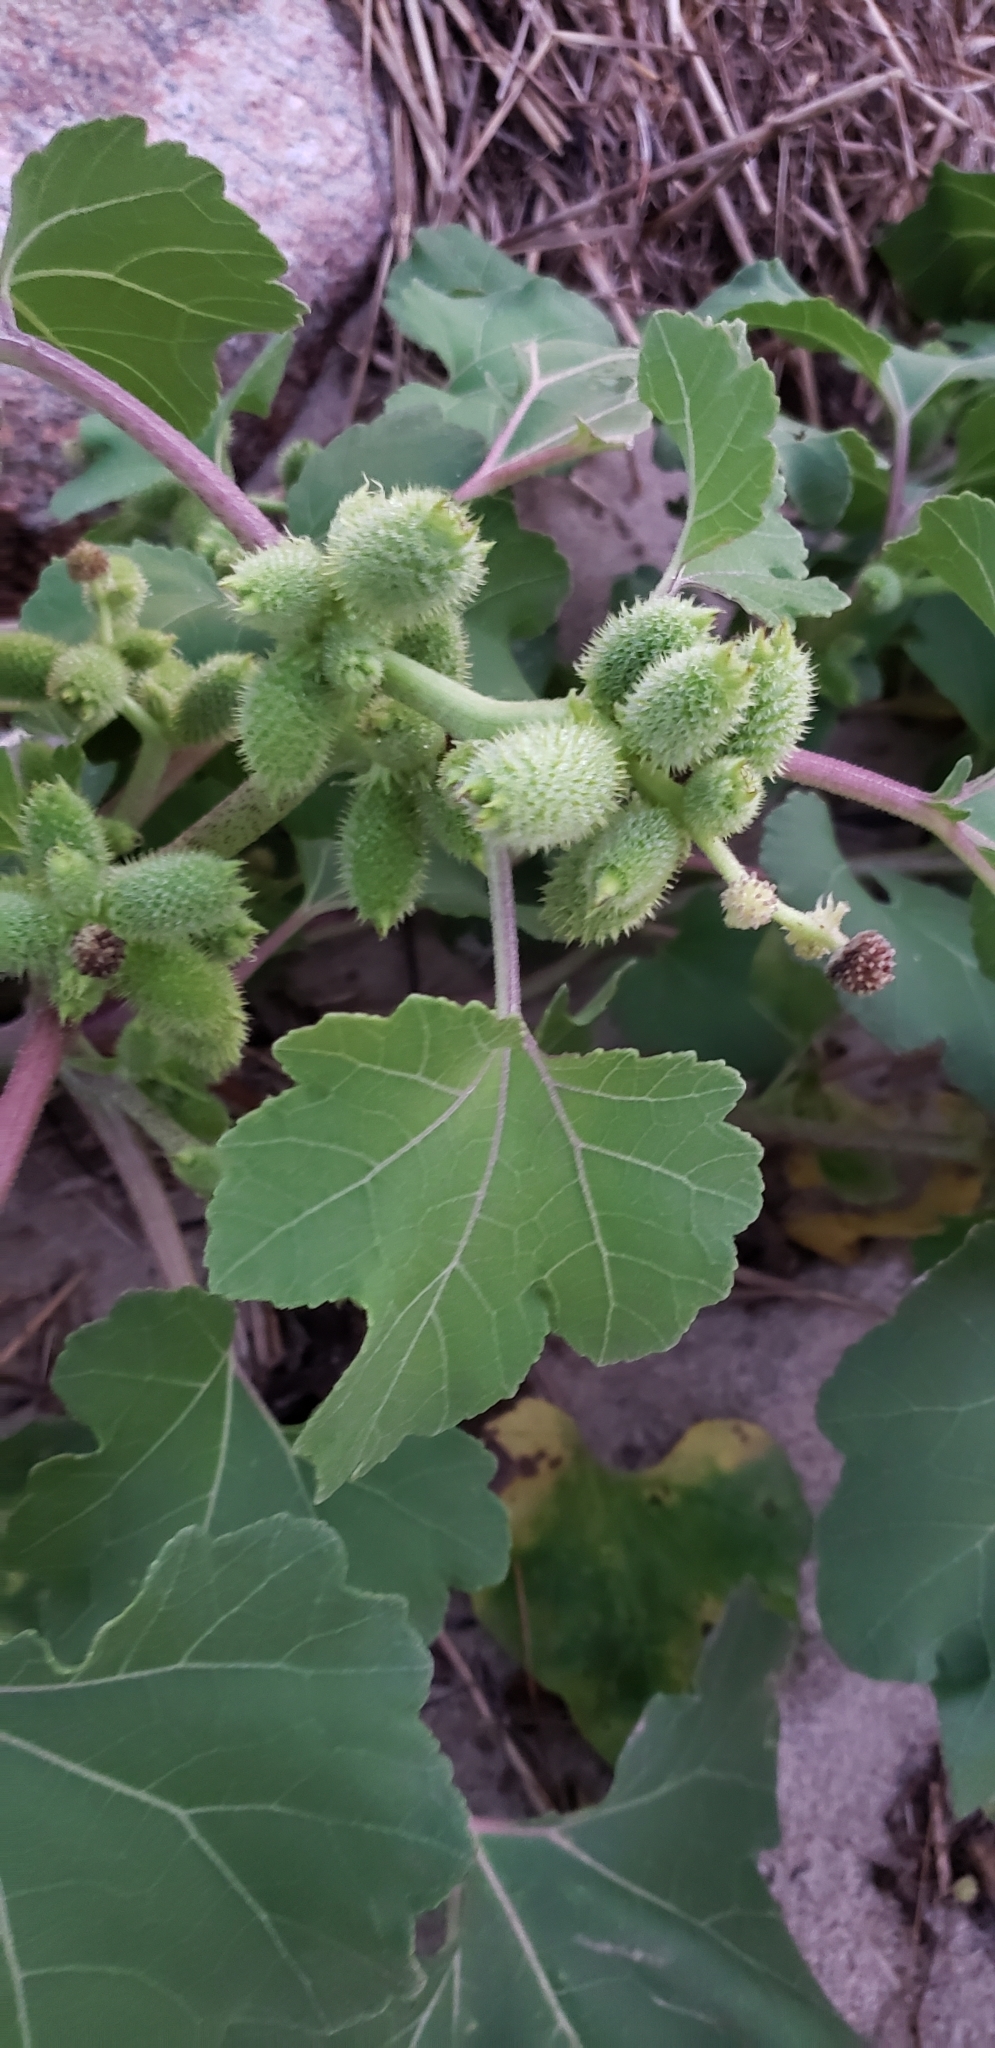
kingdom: Plantae
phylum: Tracheophyta
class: Magnoliopsida
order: Asterales
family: Asteraceae
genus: Xanthium
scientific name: Xanthium strumarium
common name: Rough cocklebur
